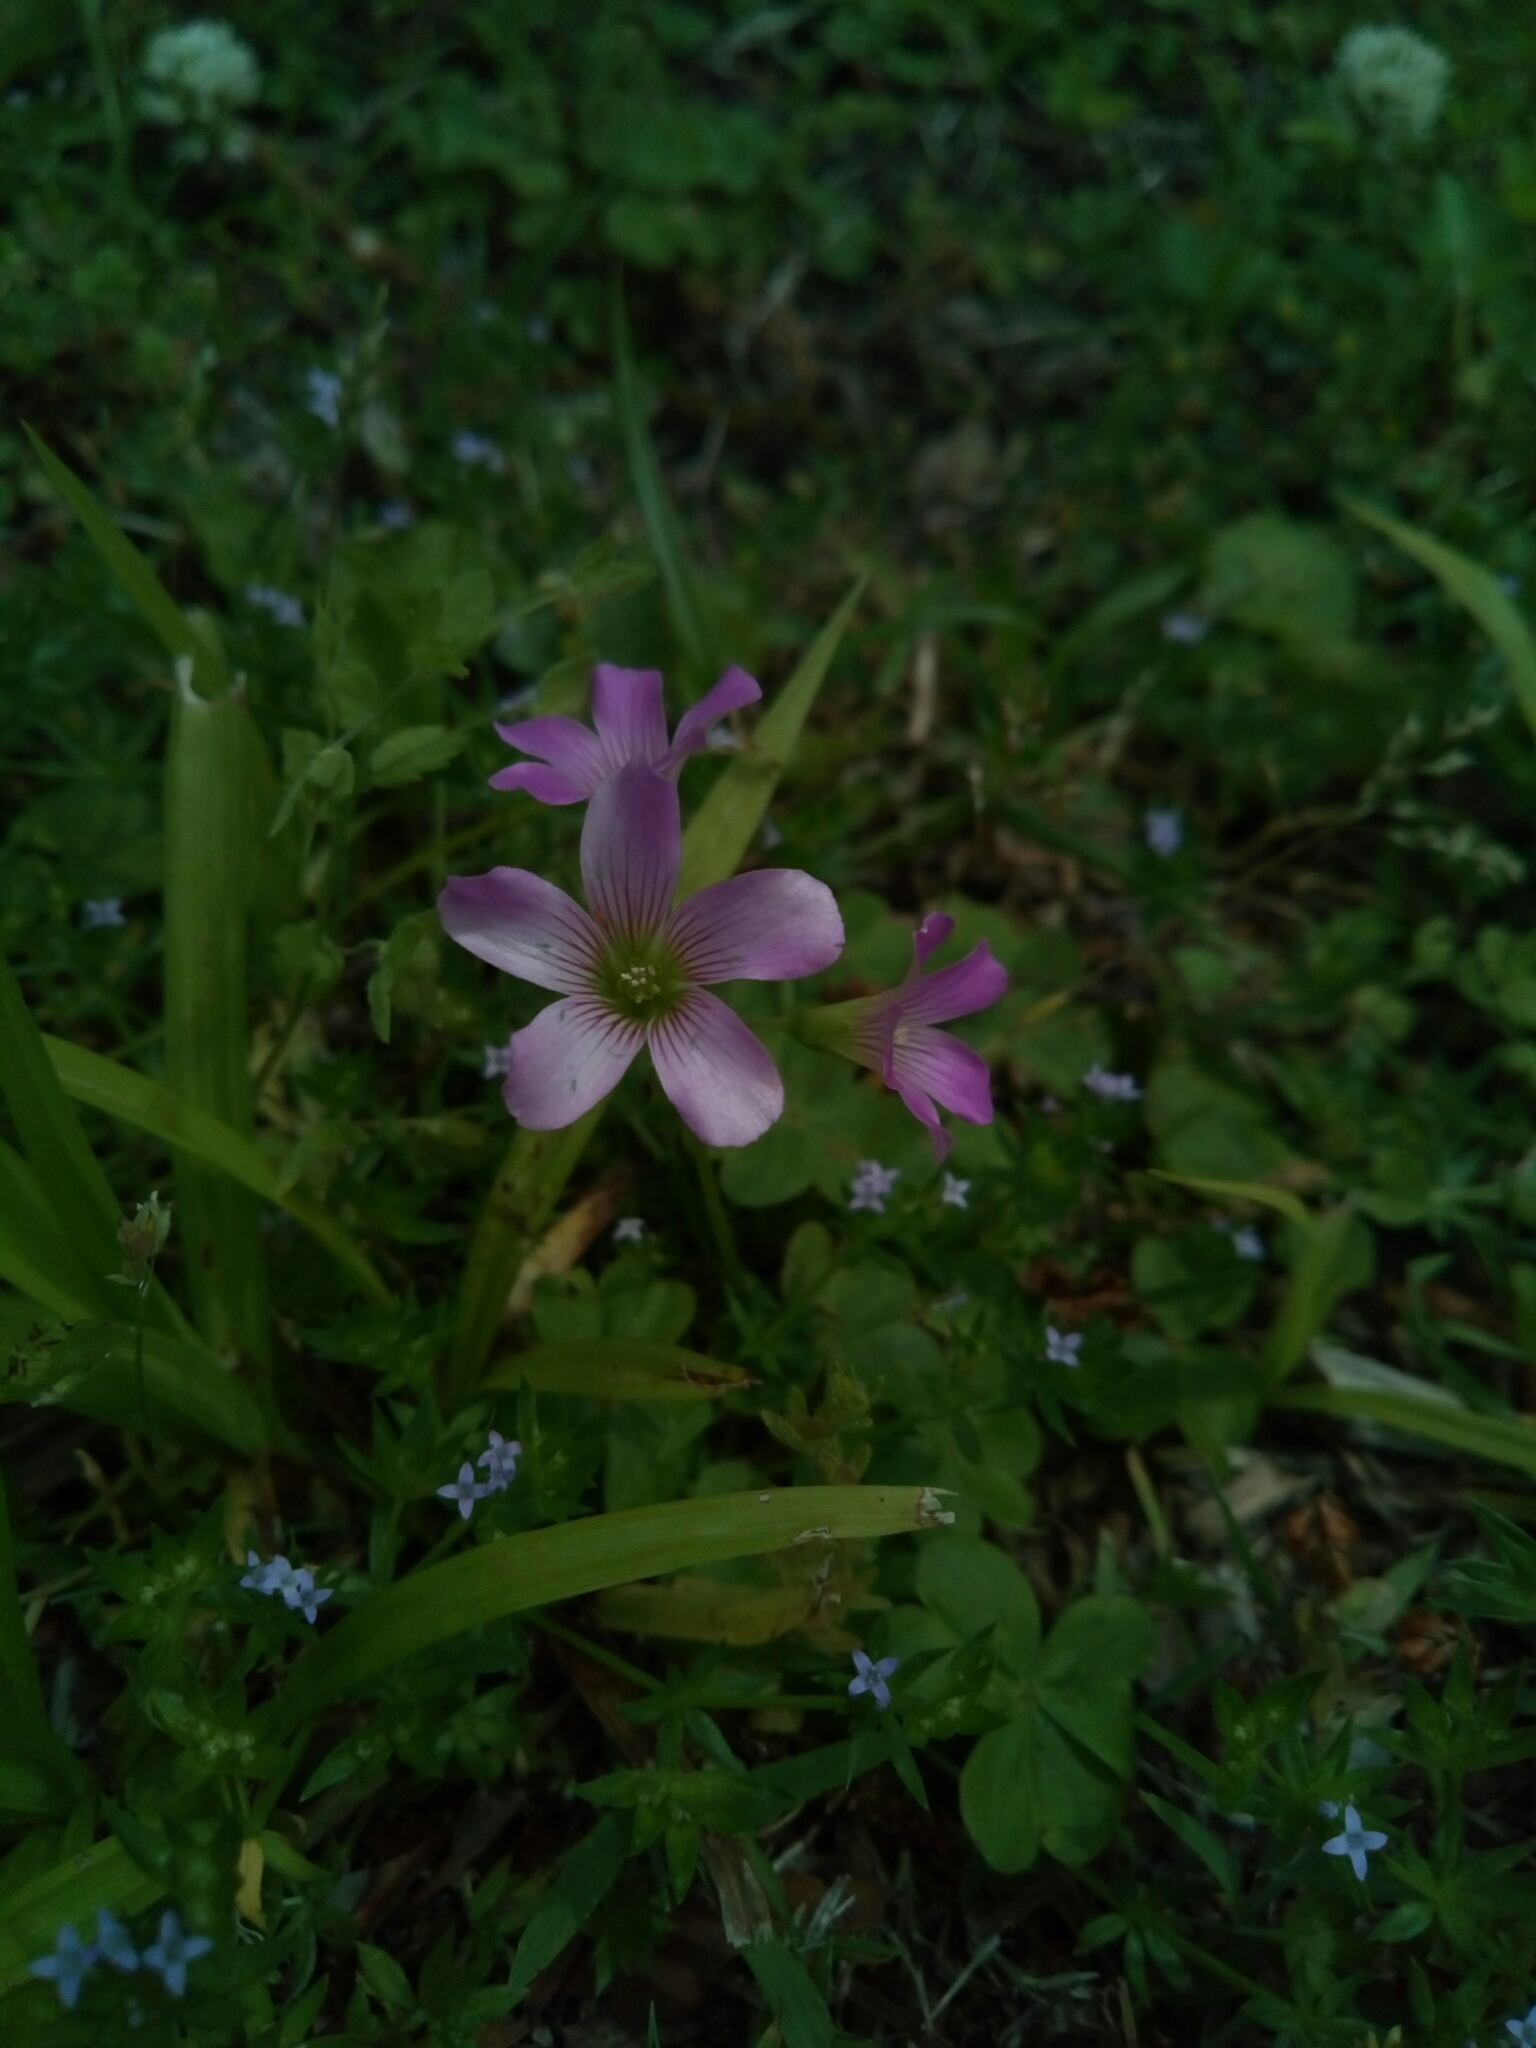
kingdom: Plantae
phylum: Tracheophyta
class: Magnoliopsida
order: Oxalidales
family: Oxalidaceae
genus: Oxalis
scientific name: Oxalis debilis
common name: Large-flowered pink-sorrel
